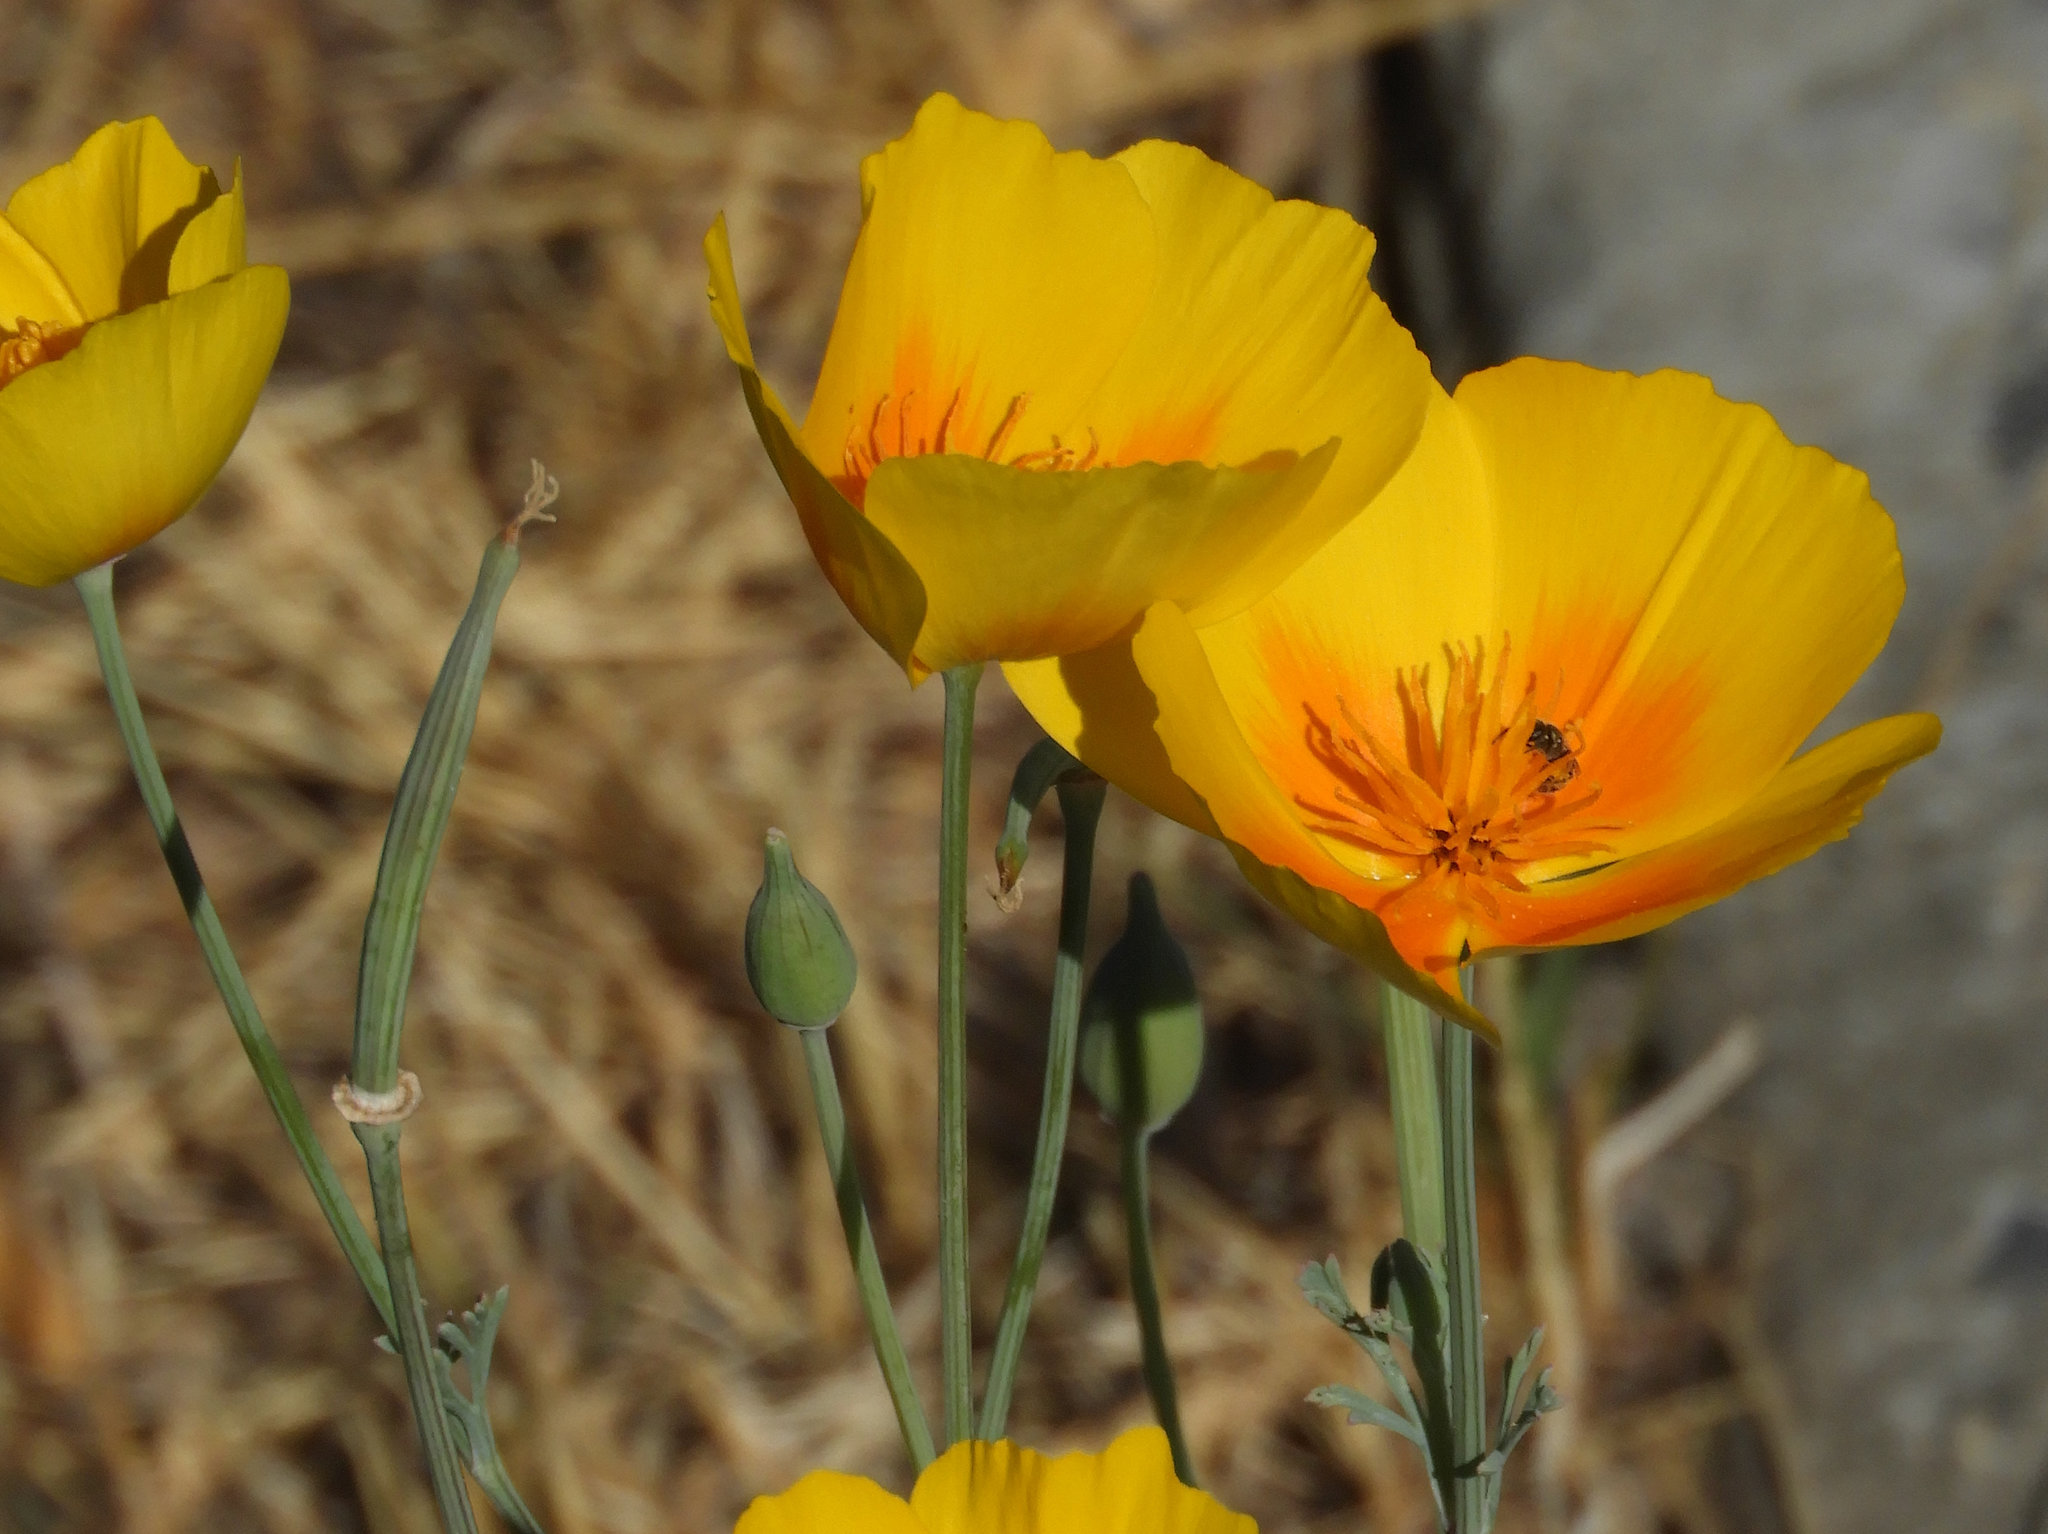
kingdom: Plantae
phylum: Tracheophyta
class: Magnoliopsida
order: Ranunculales
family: Papaveraceae
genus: Eschscholzia
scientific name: Eschscholzia californica
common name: California poppy
